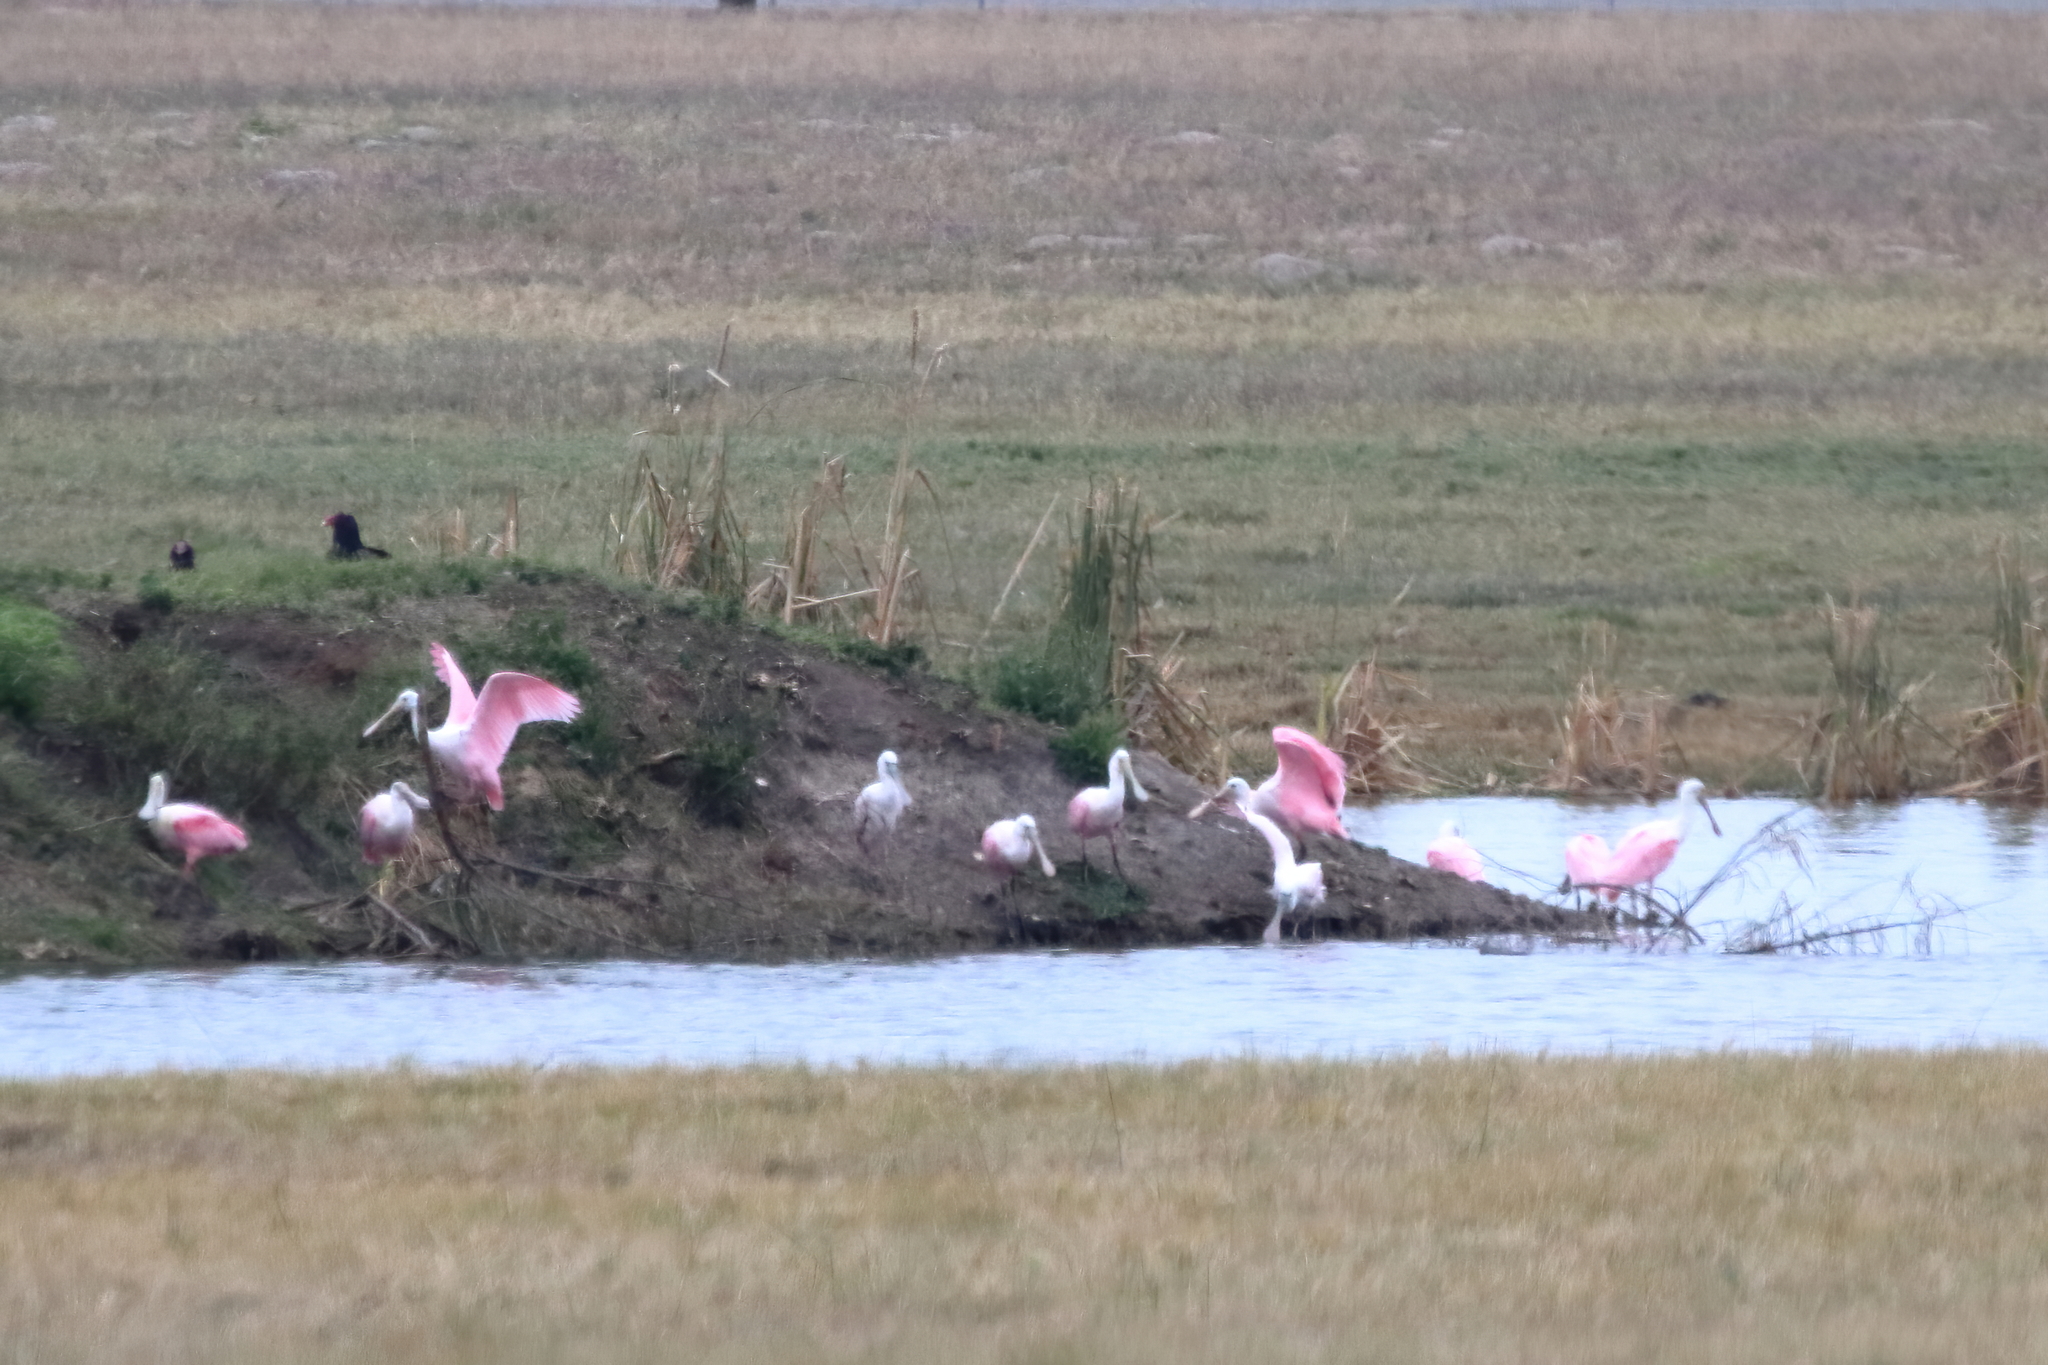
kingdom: Animalia
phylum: Chordata
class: Aves
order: Pelecaniformes
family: Threskiornithidae
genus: Platalea
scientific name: Platalea ajaja
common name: Roseate spoonbill
